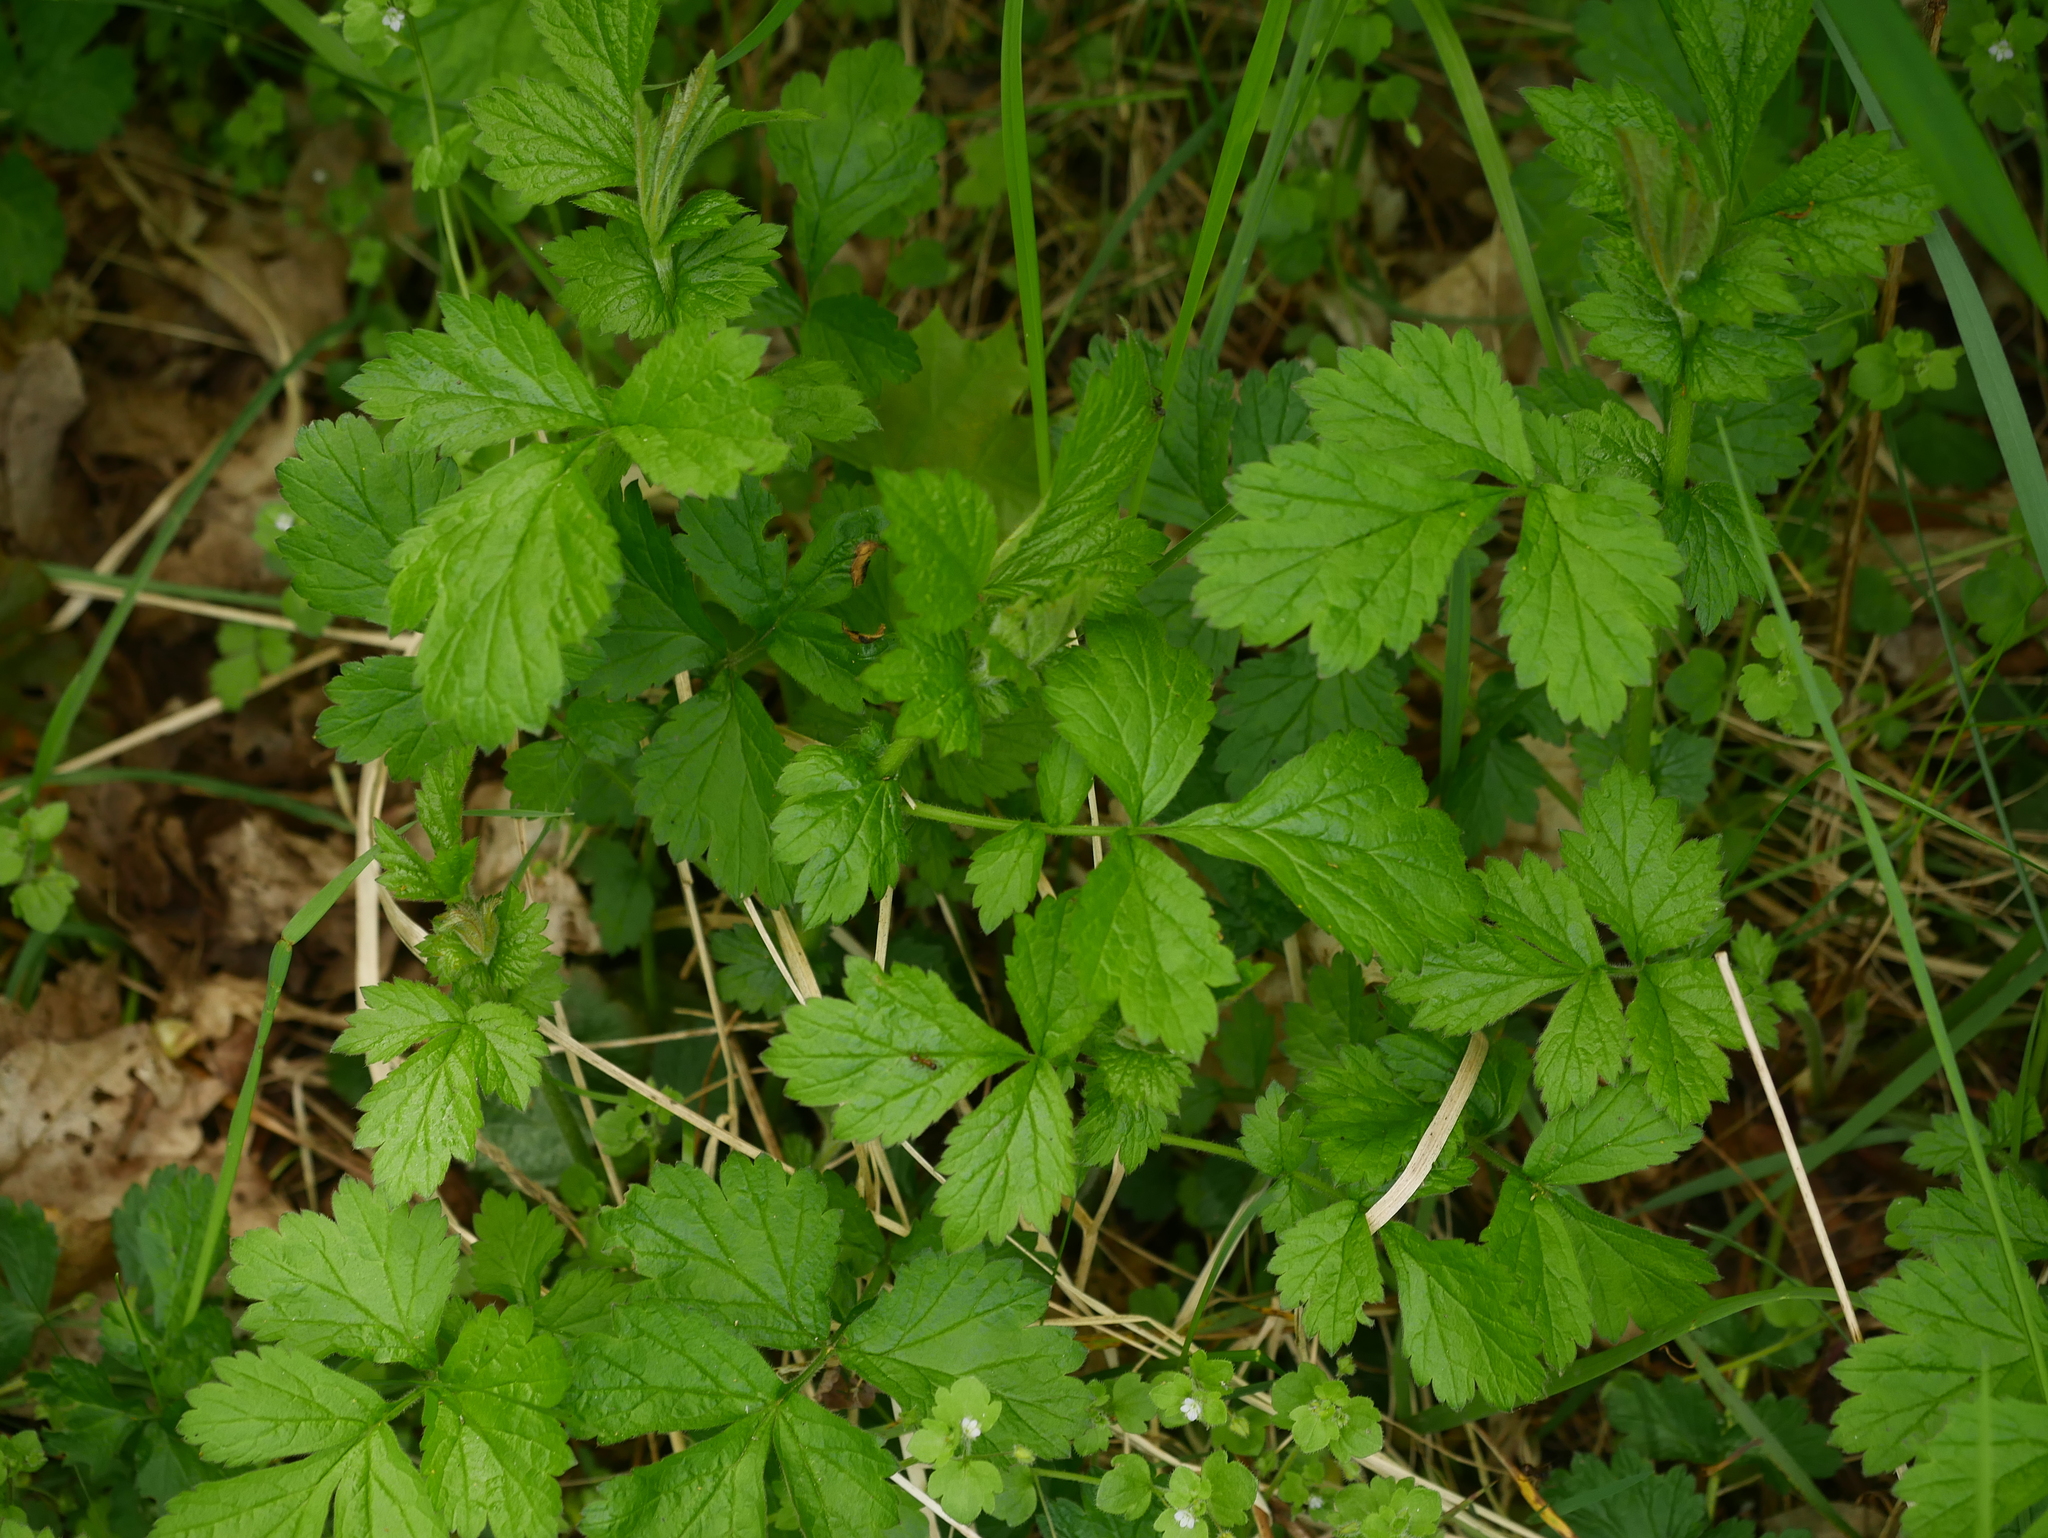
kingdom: Plantae
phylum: Tracheophyta
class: Magnoliopsida
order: Rosales
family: Rosaceae
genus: Geum
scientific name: Geum urbanum
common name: Wood avens
